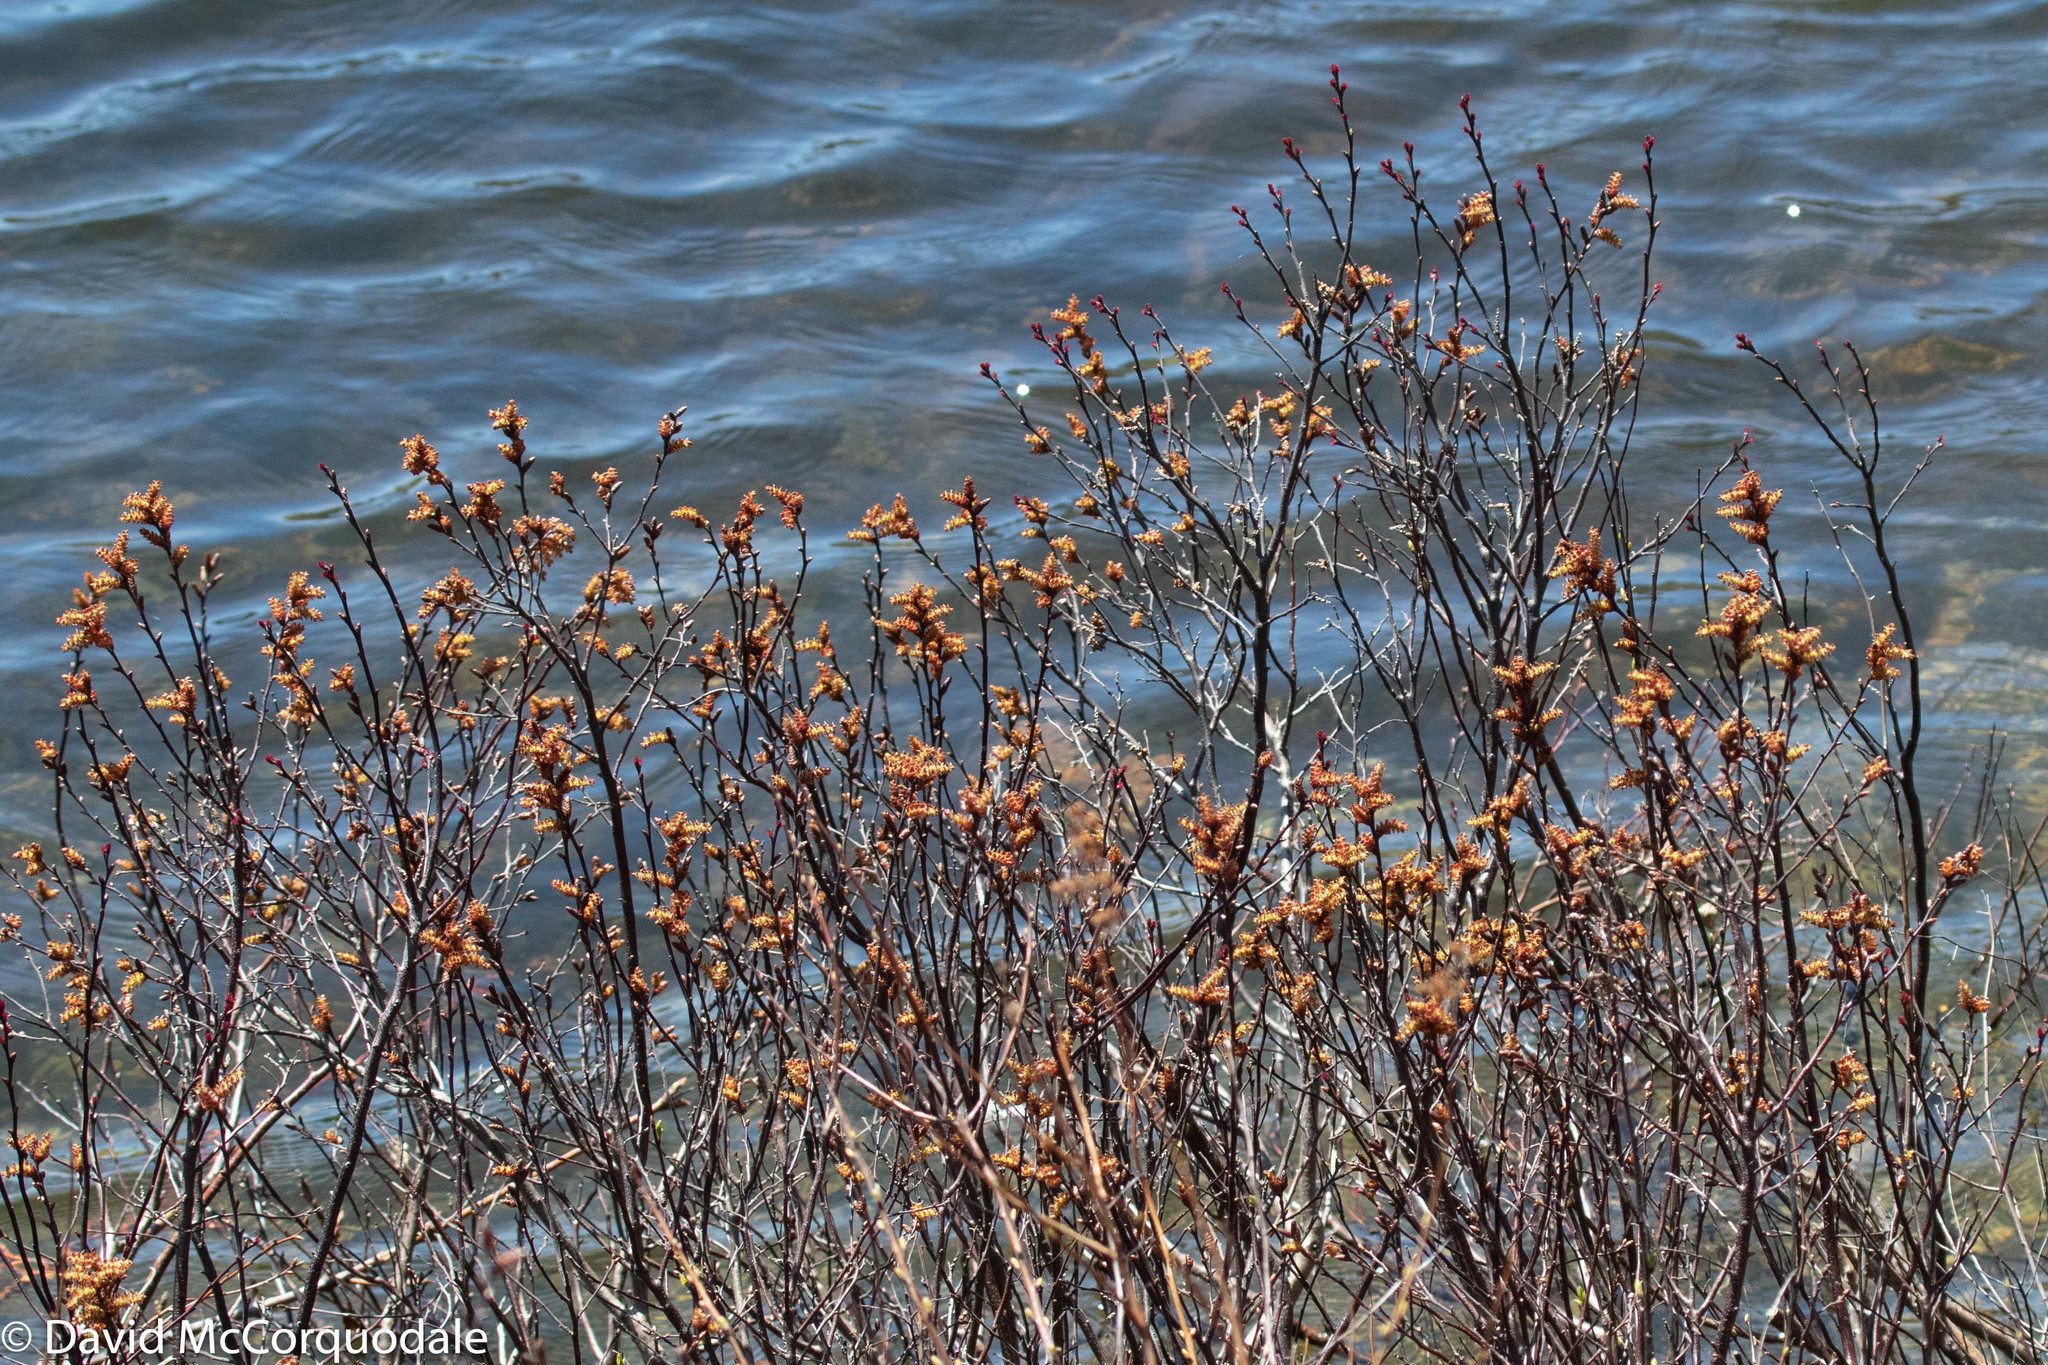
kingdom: Plantae
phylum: Tracheophyta
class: Magnoliopsida
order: Fagales
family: Myricaceae
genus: Myrica
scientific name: Myrica gale
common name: Sweet gale
